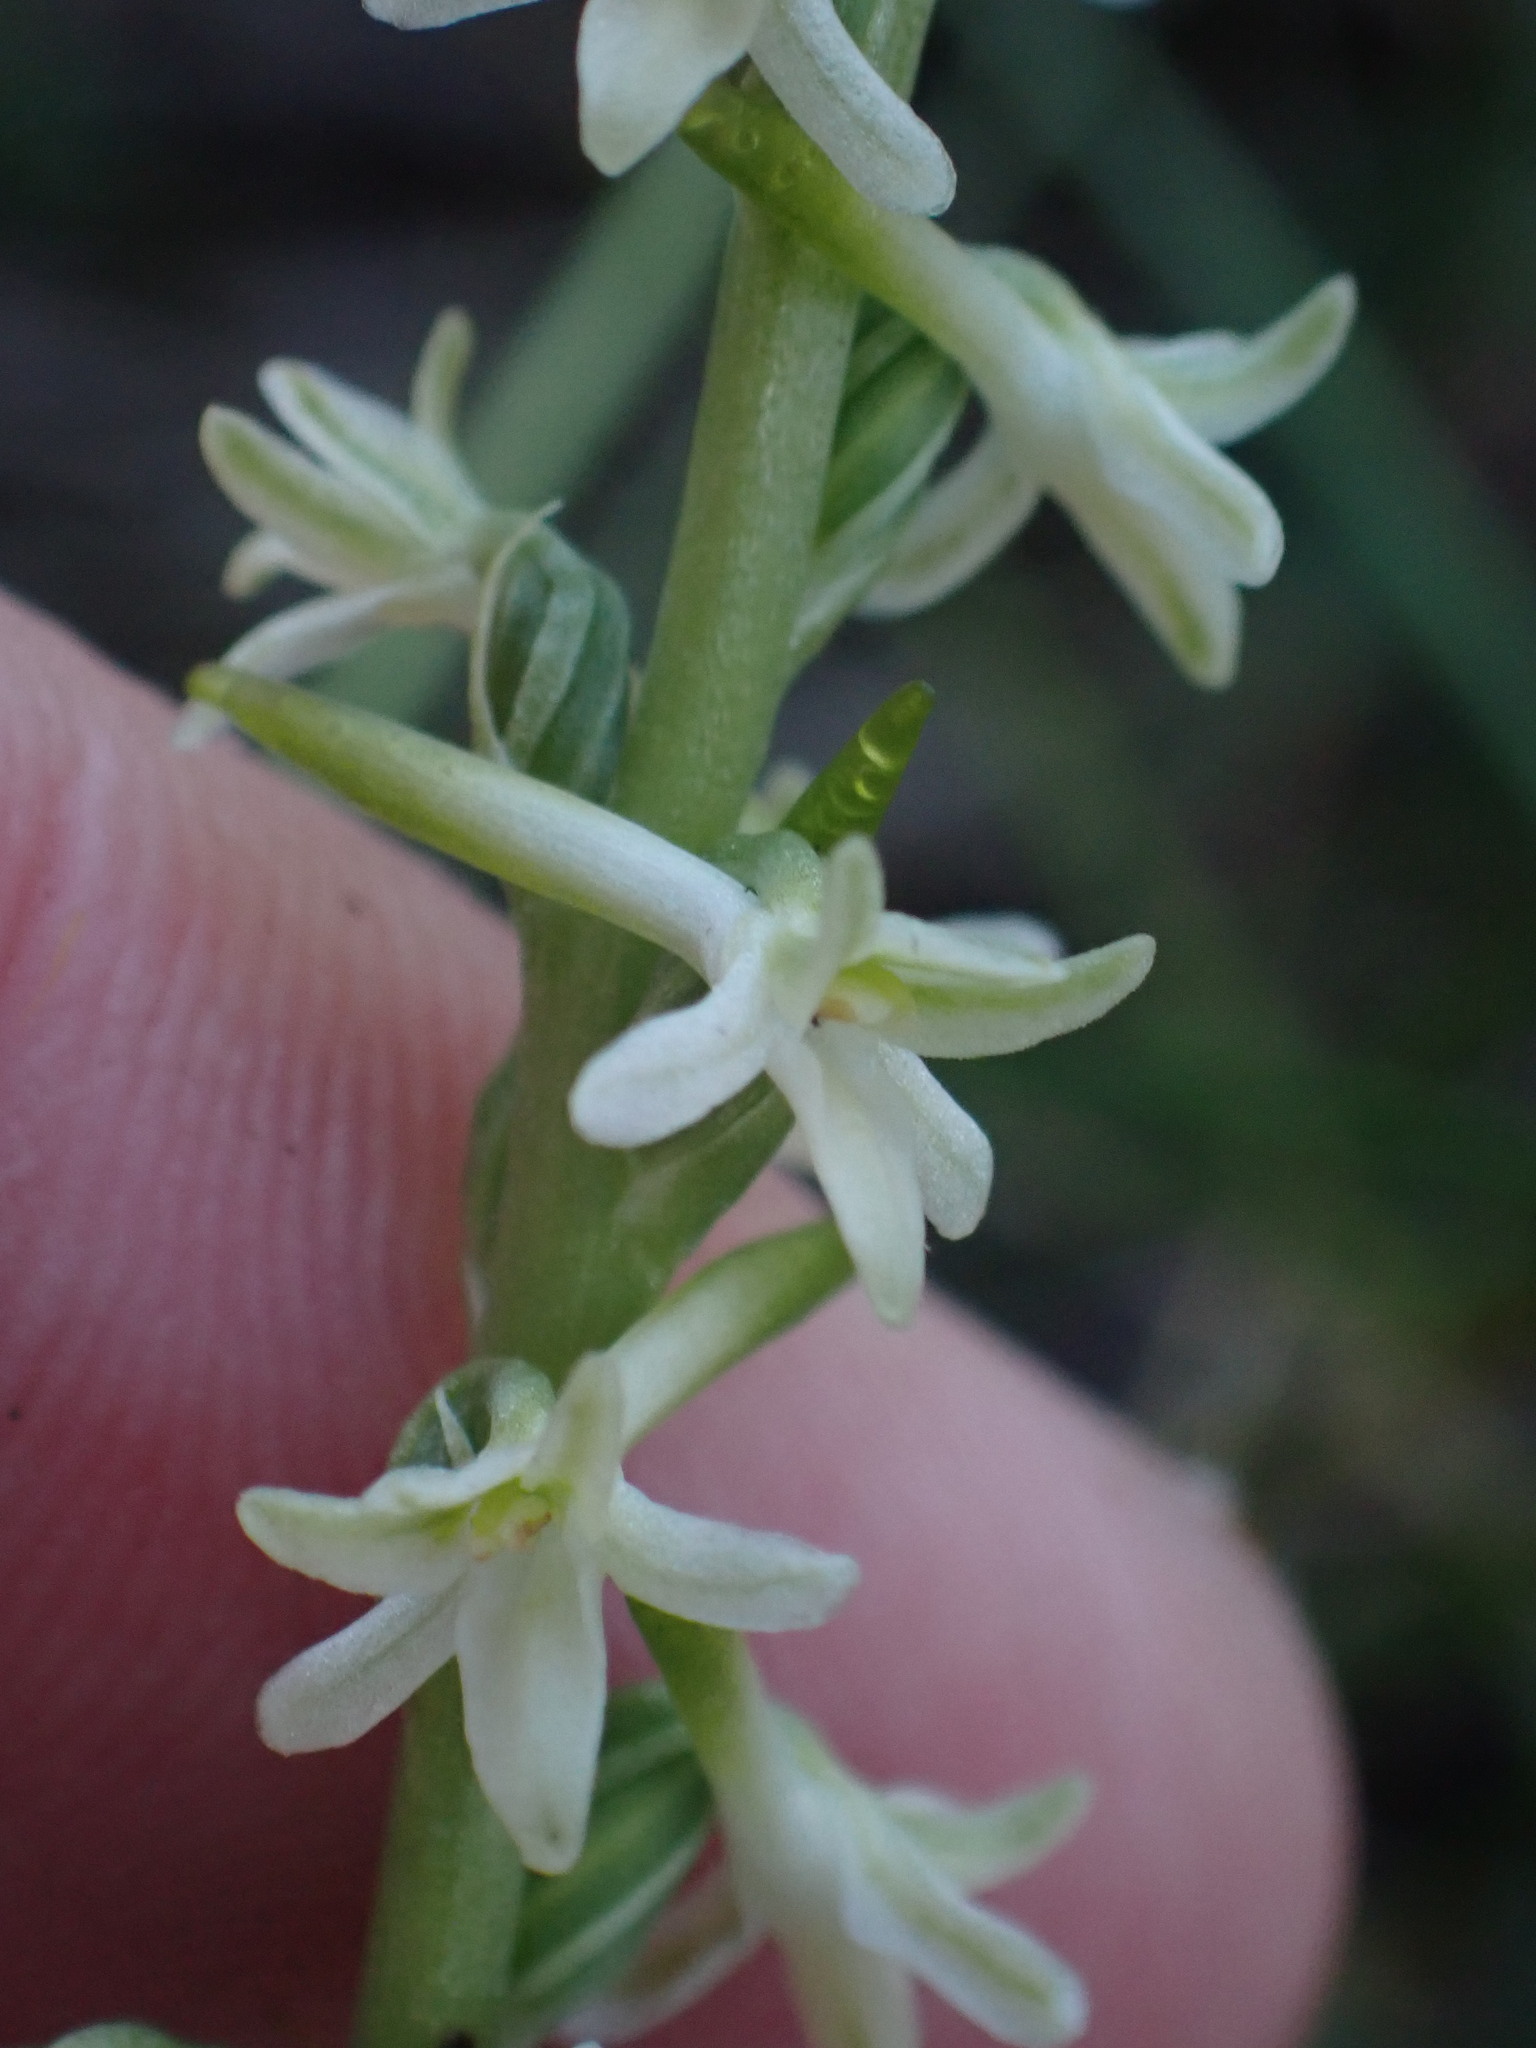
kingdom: Plantae
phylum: Tracheophyta
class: Liliopsida
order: Asparagales
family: Orchidaceae
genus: Platanthera
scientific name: Platanthera transversa
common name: Royal rein orchid
